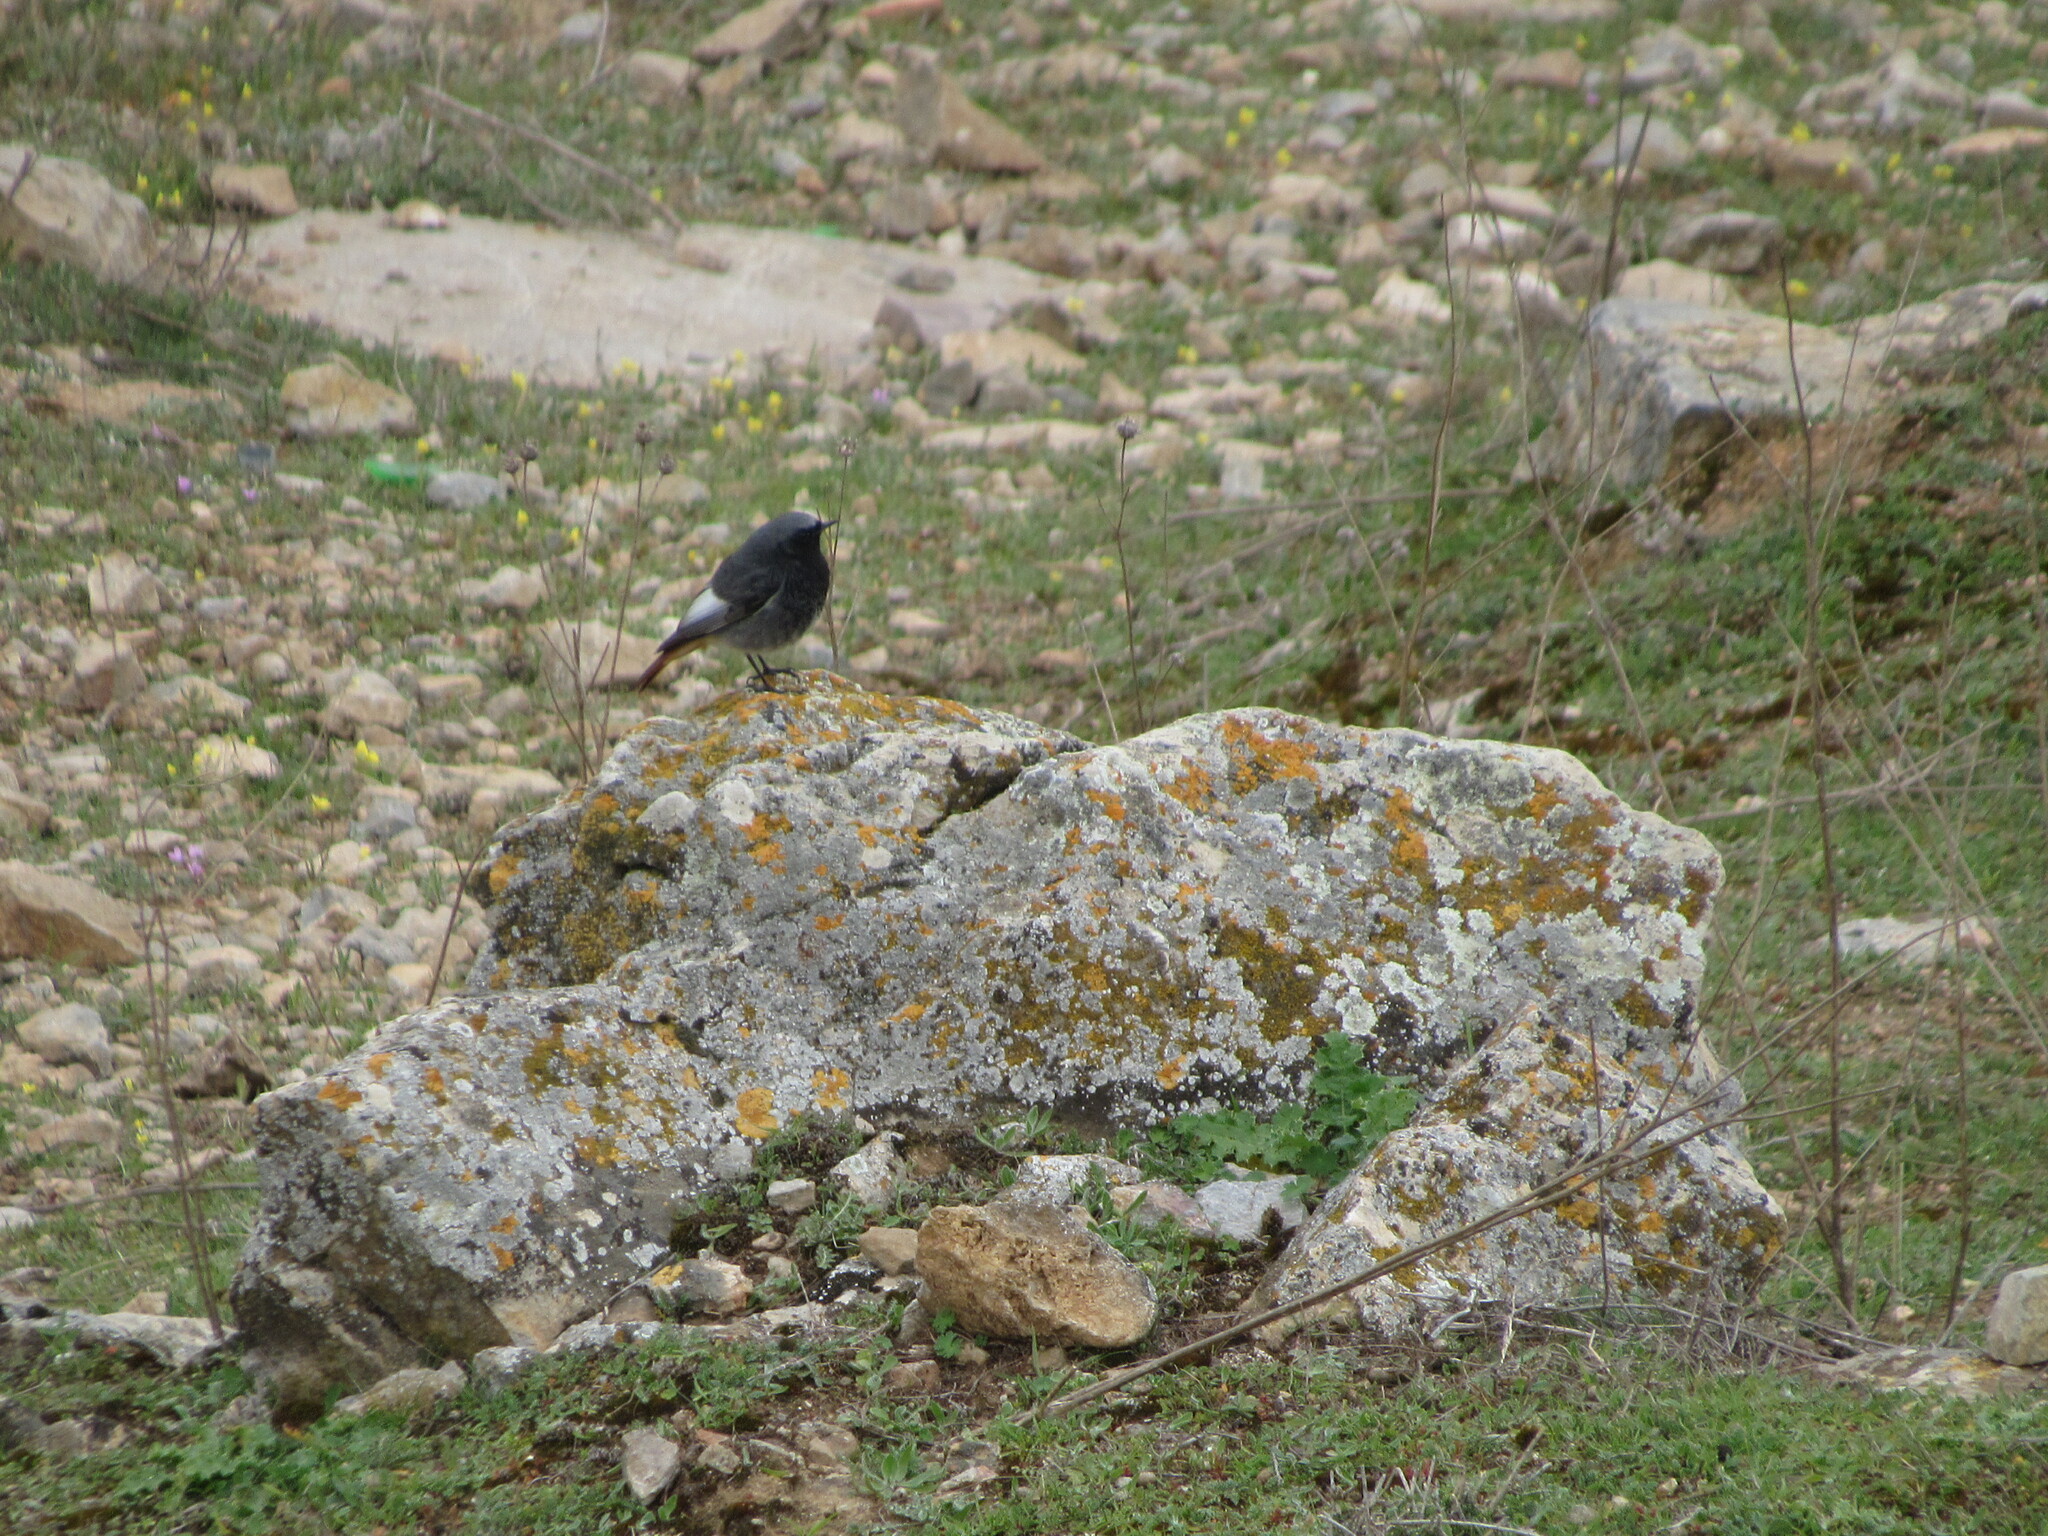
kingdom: Animalia
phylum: Chordata
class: Aves
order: Passeriformes
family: Muscicapidae
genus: Phoenicurus
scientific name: Phoenicurus ochruros
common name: Black redstart
